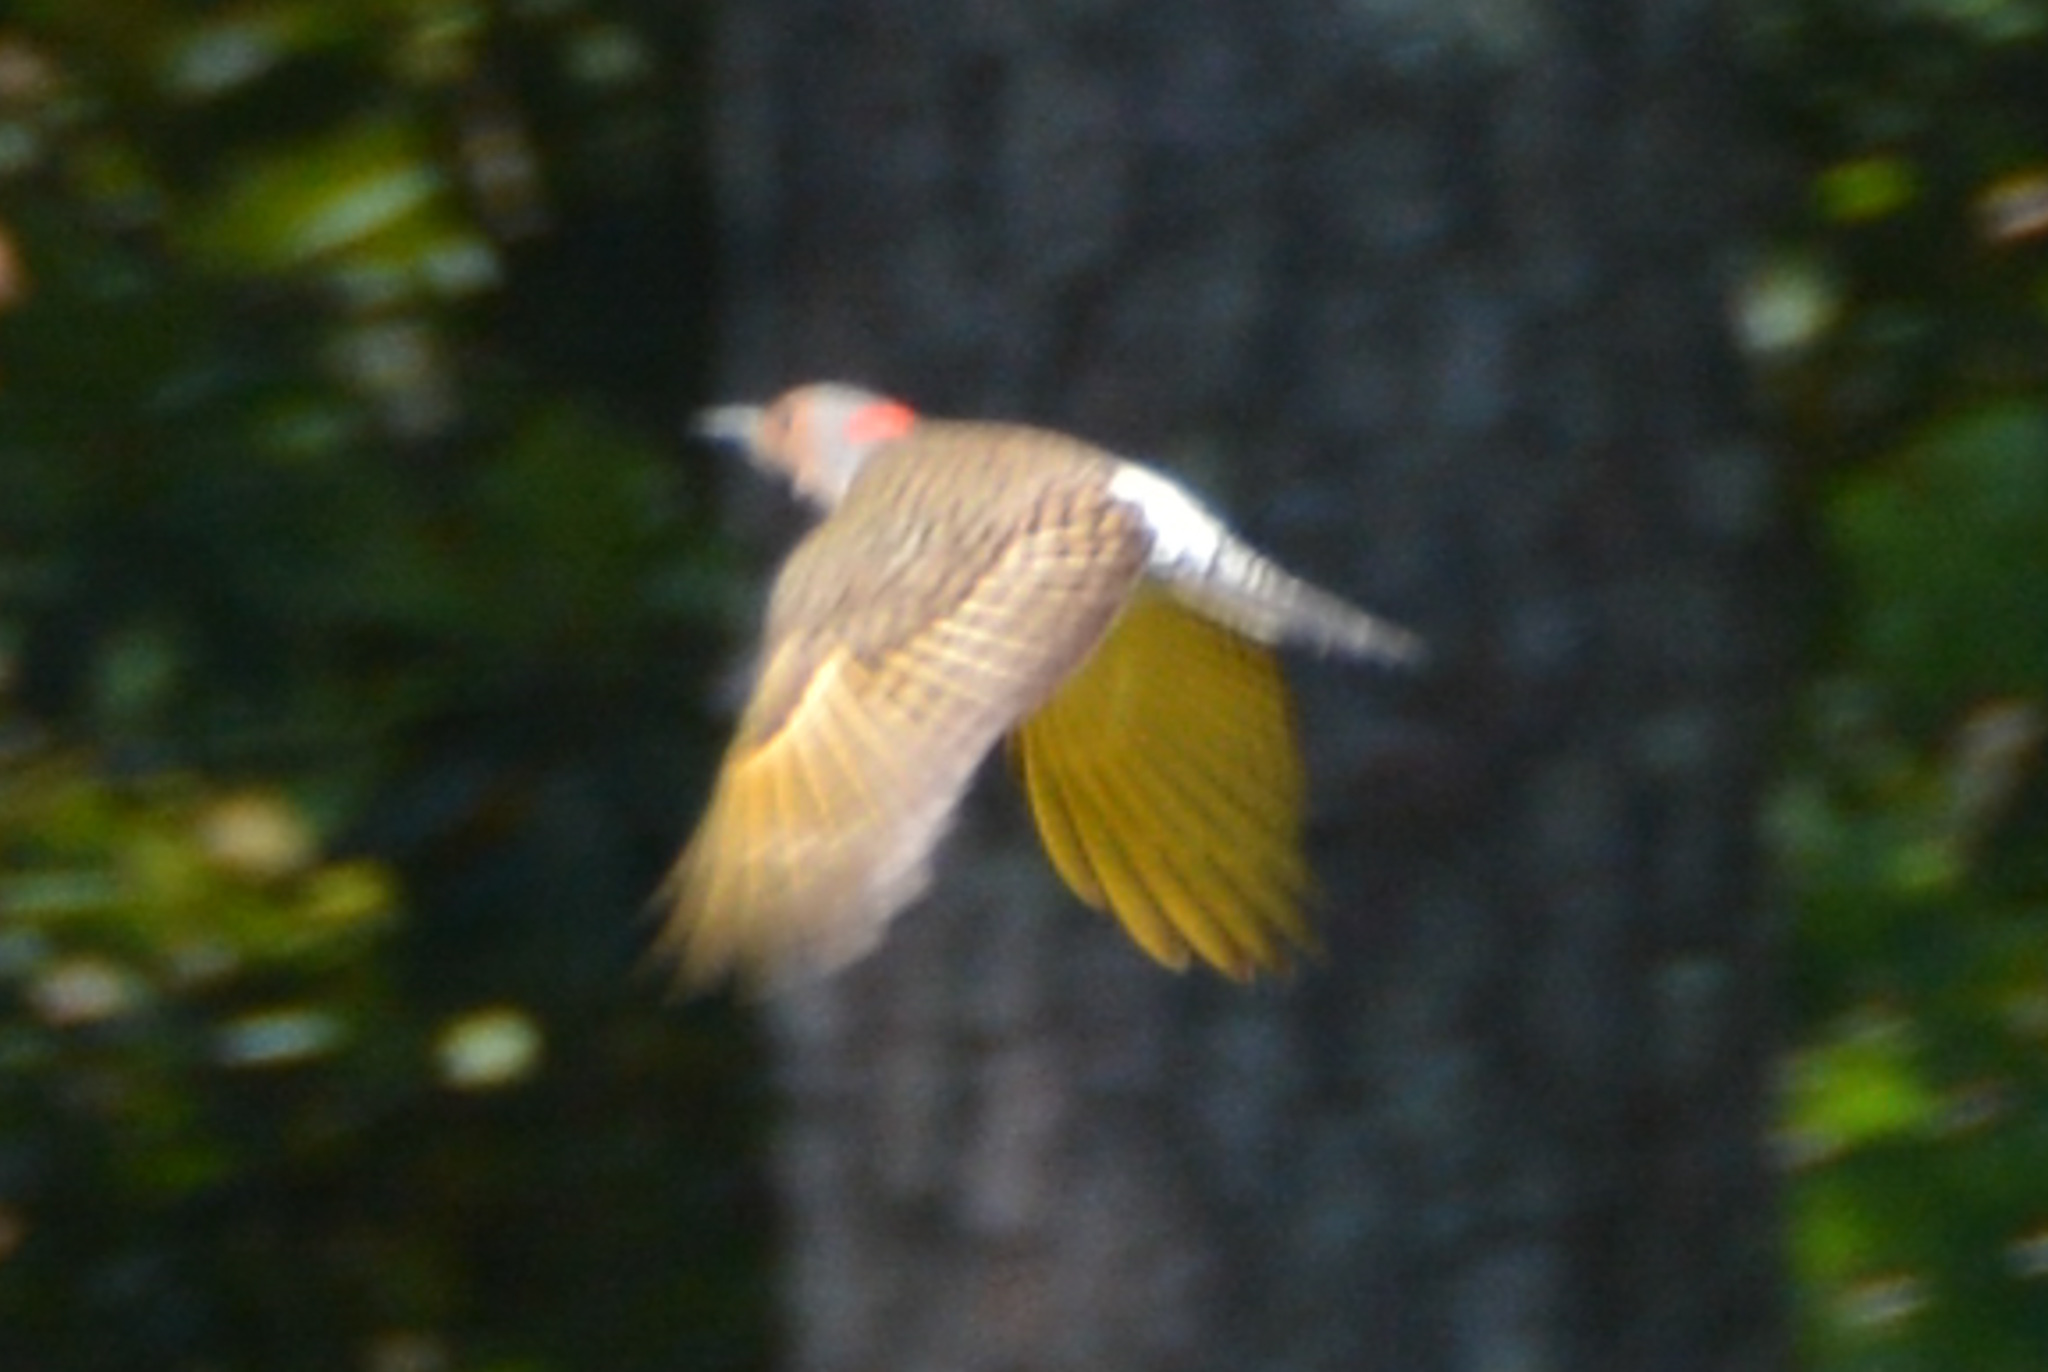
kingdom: Animalia
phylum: Chordata
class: Aves
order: Piciformes
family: Picidae
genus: Colaptes
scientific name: Colaptes auratus
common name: Northern flicker
